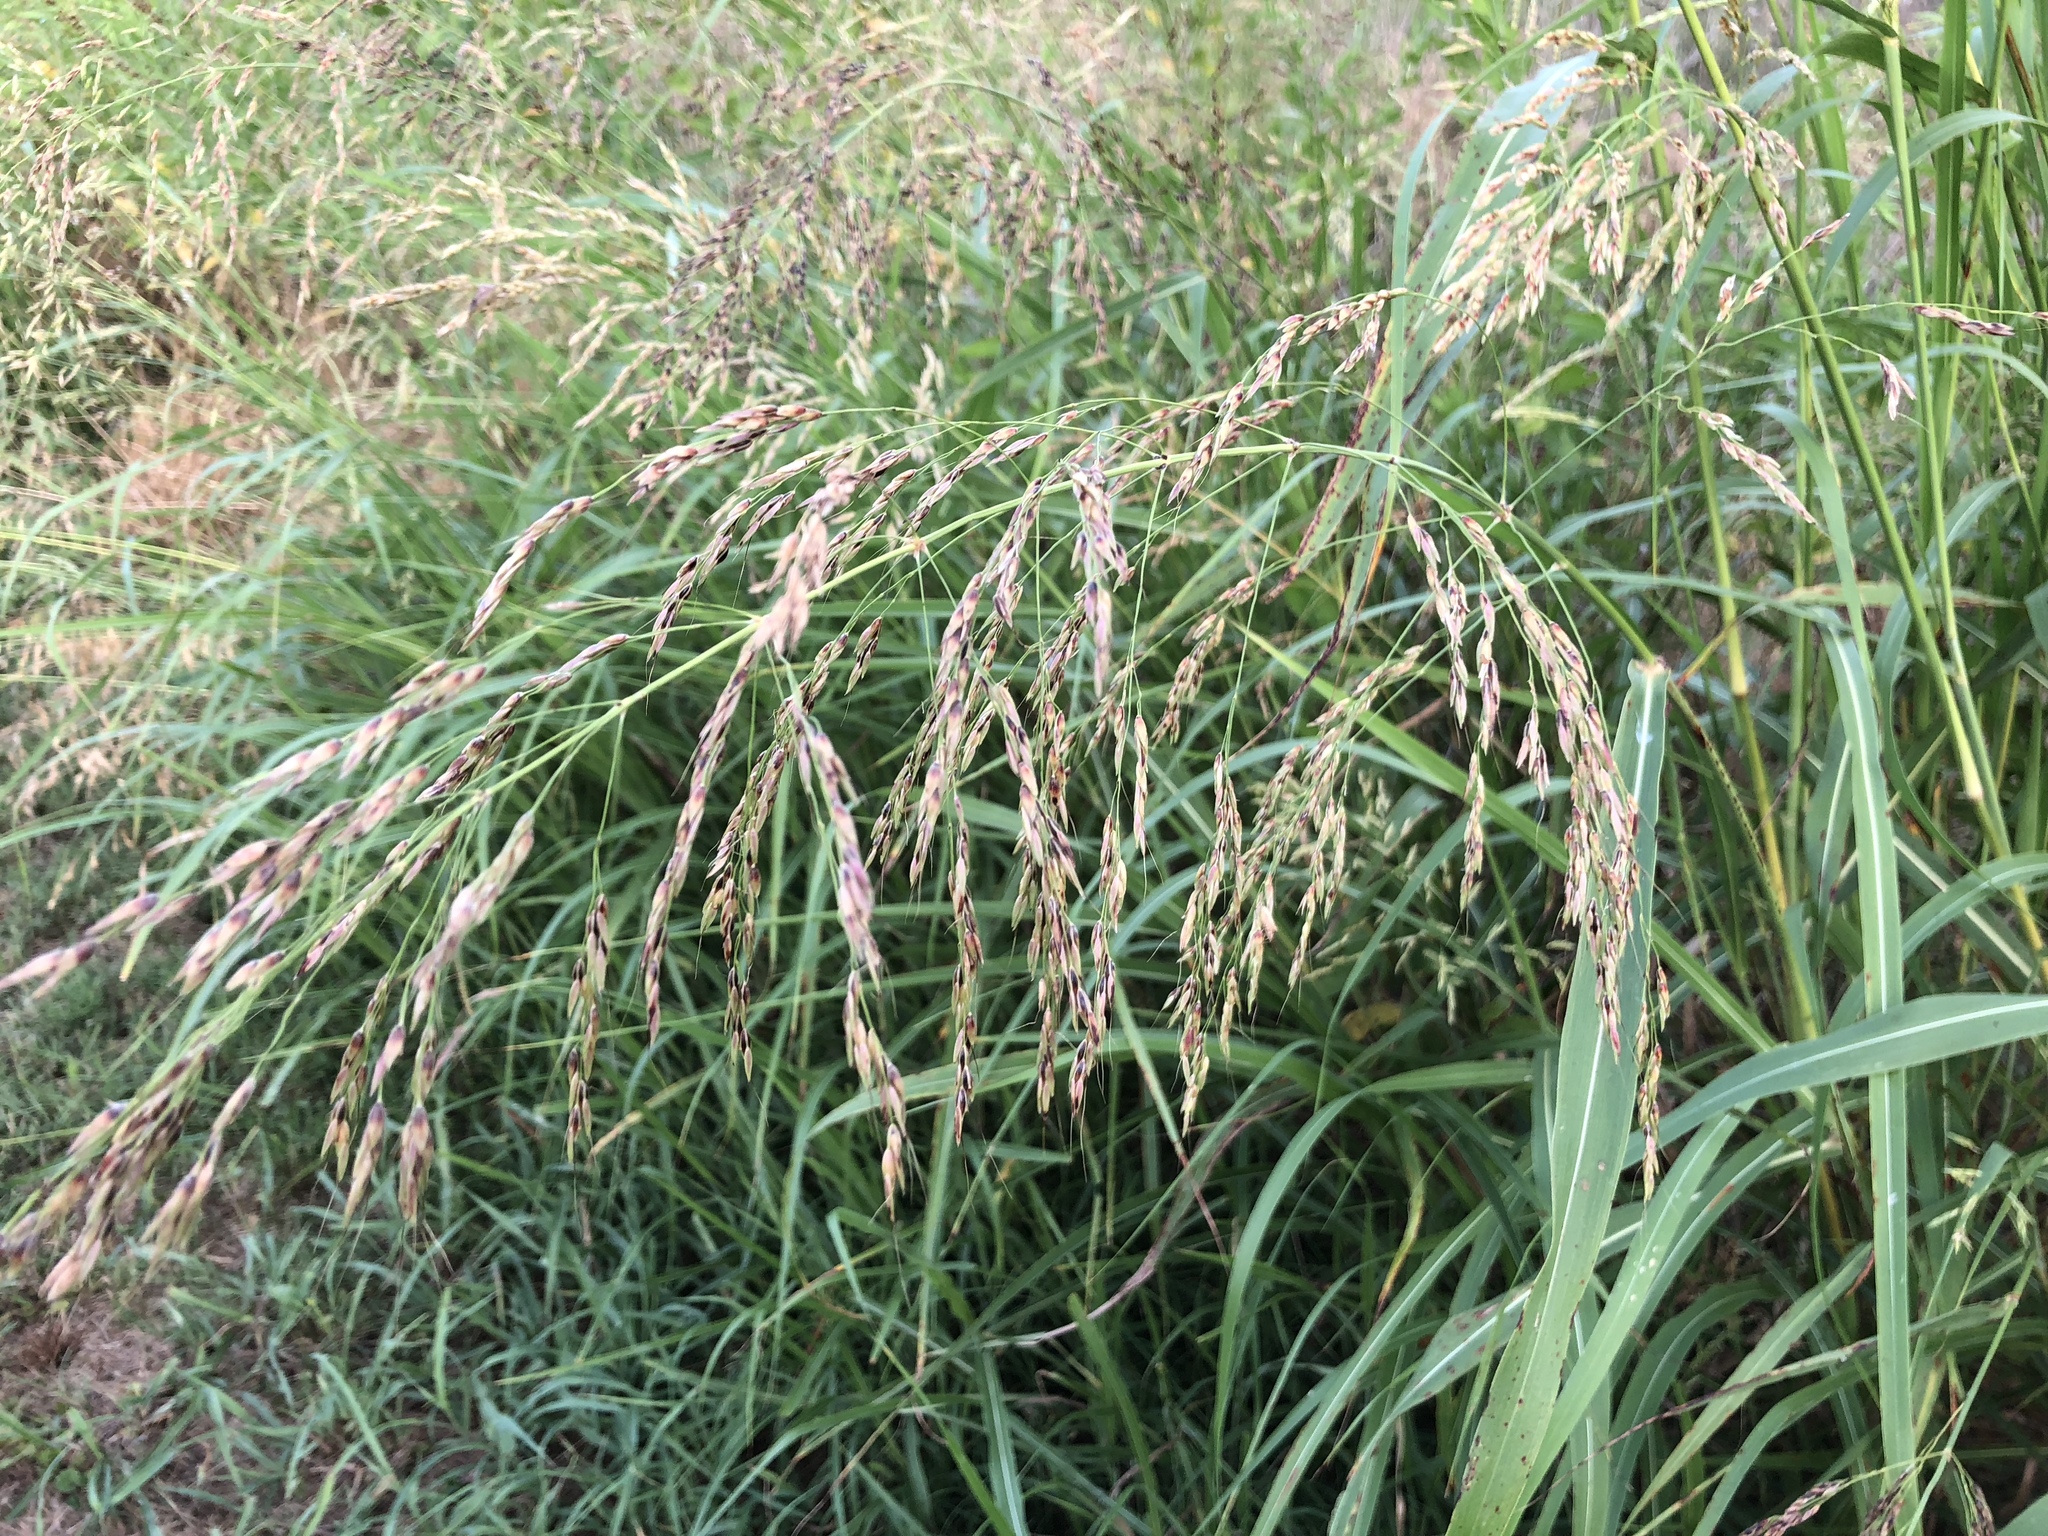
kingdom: Plantae
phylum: Tracheophyta
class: Liliopsida
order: Poales
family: Poaceae
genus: Sorghum
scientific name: Sorghum halepense
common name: Johnson-grass
